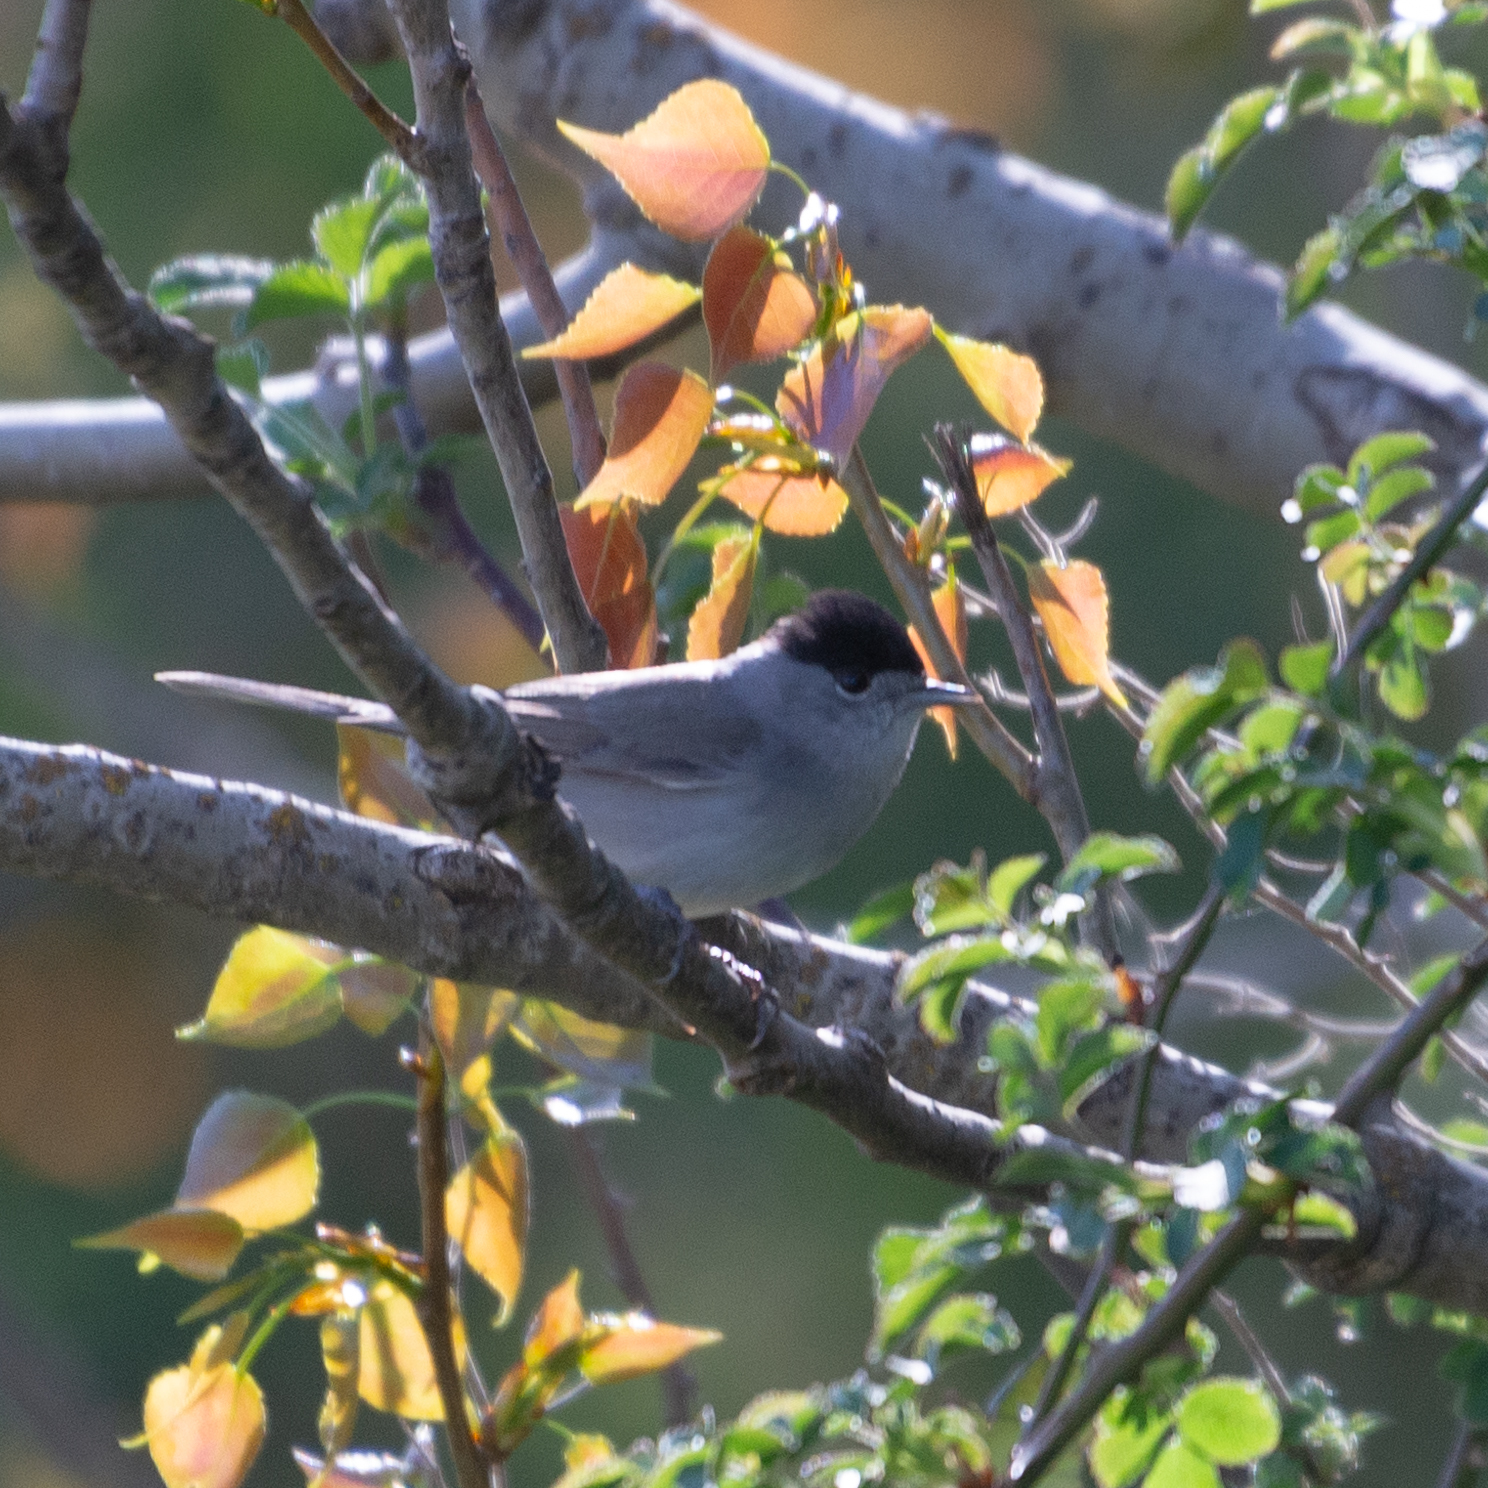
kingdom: Animalia
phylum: Chordata
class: Aves
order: Passeriformes
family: Sylviidae
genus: Sylvia
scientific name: Sylvia atricapilla
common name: Eurasian blackcap
